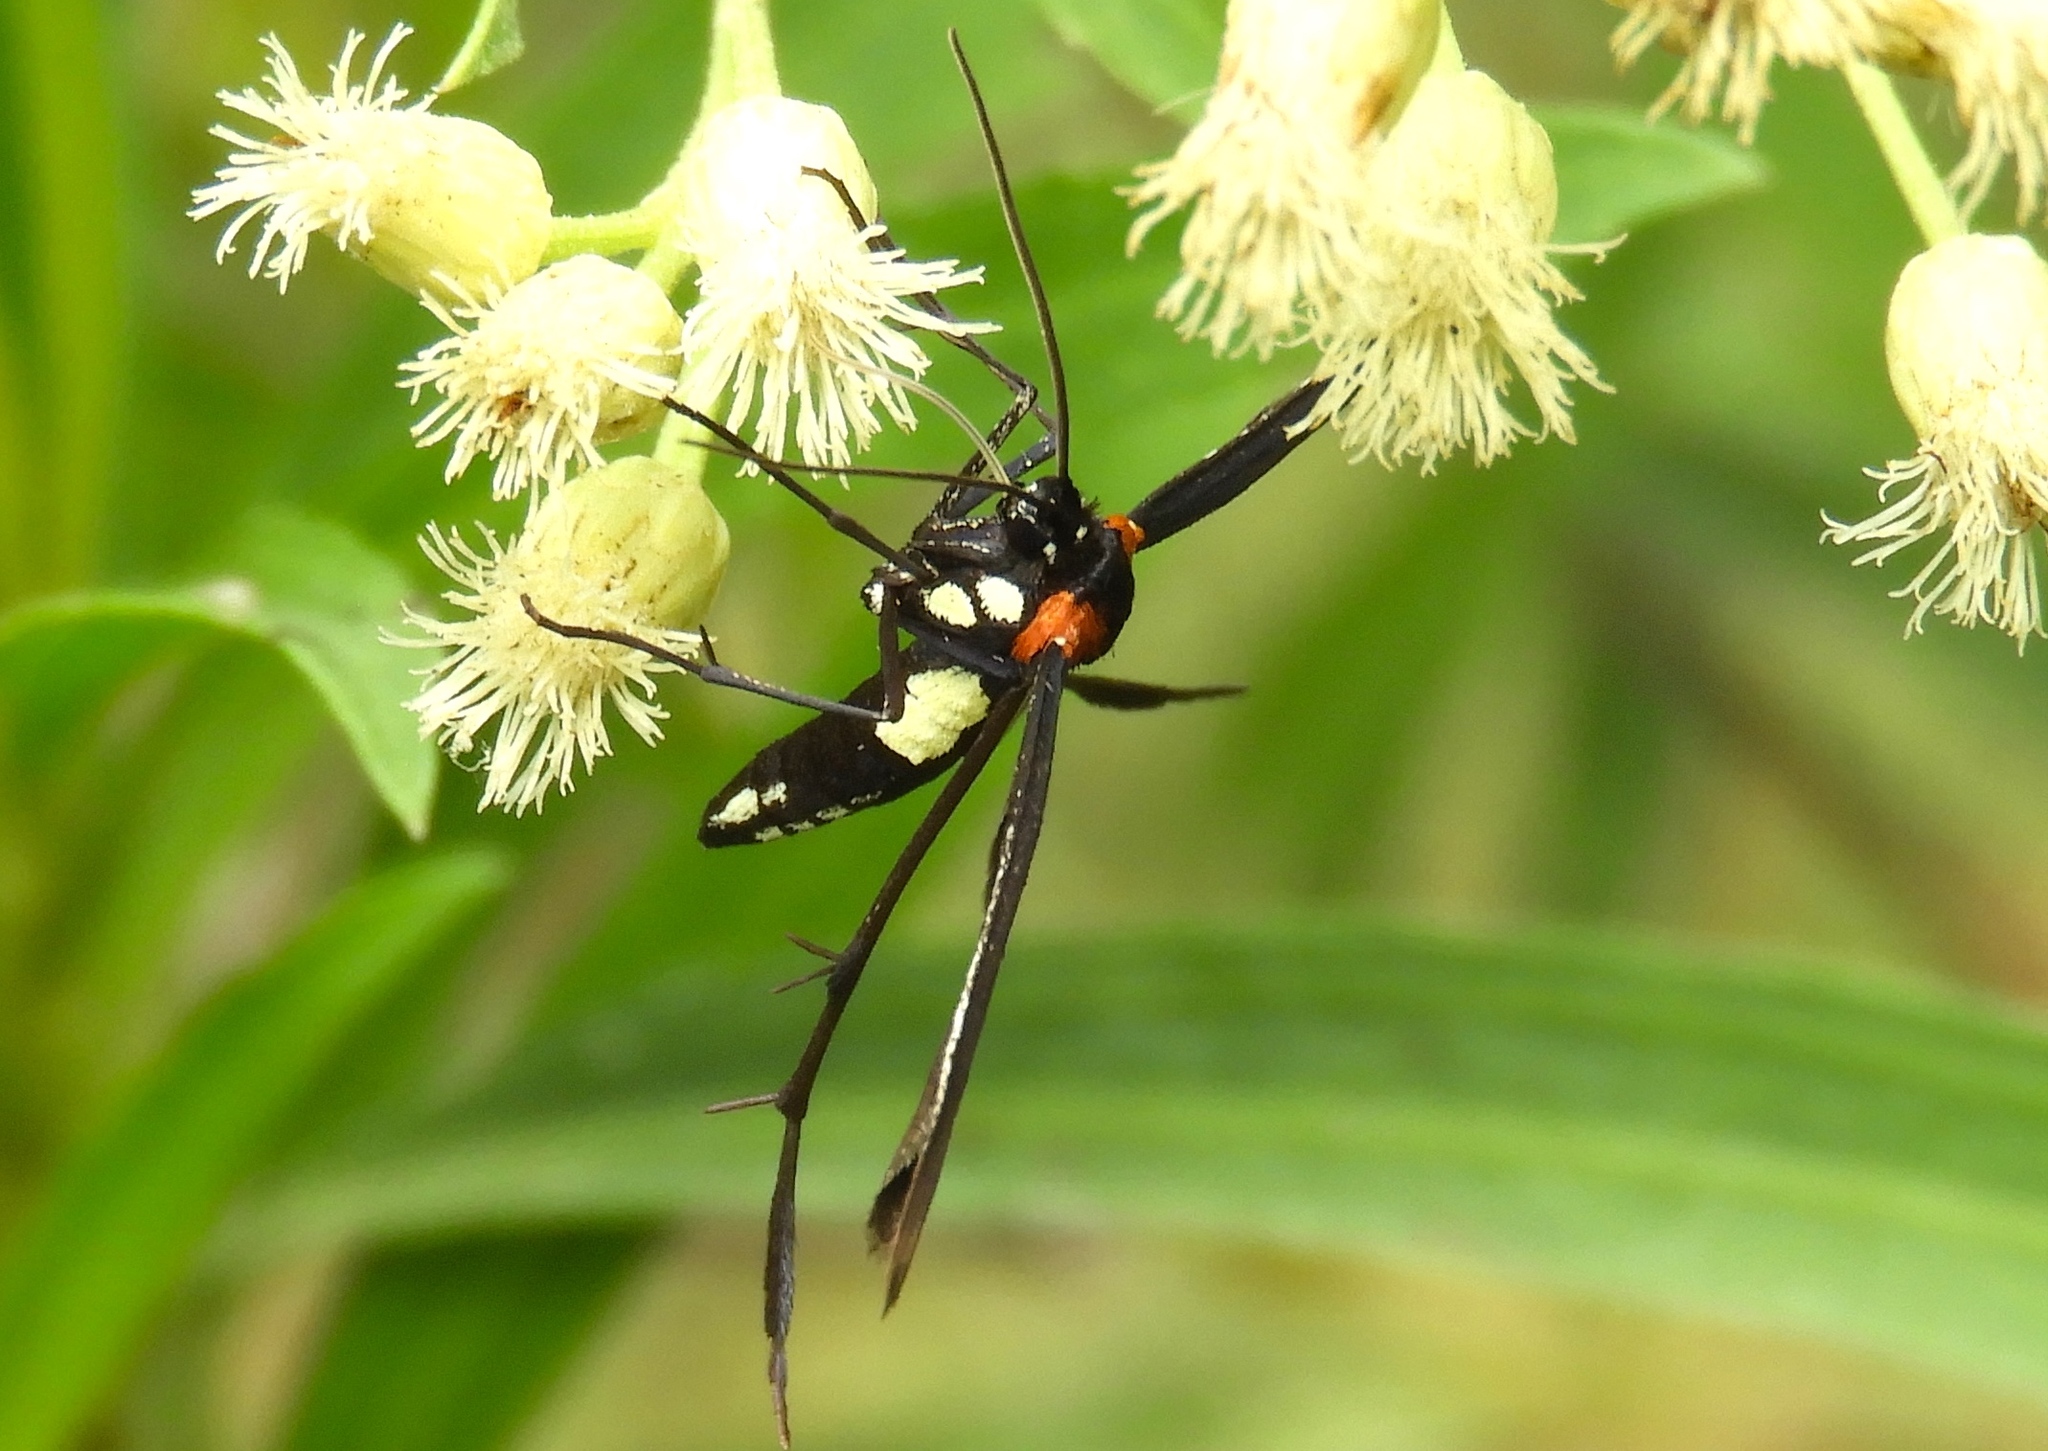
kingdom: Animalia
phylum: Arthropoda
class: Insecta
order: Lepidoptera
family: Pterophoridae
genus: Hellinsia
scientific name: Hellinsia chamelai
